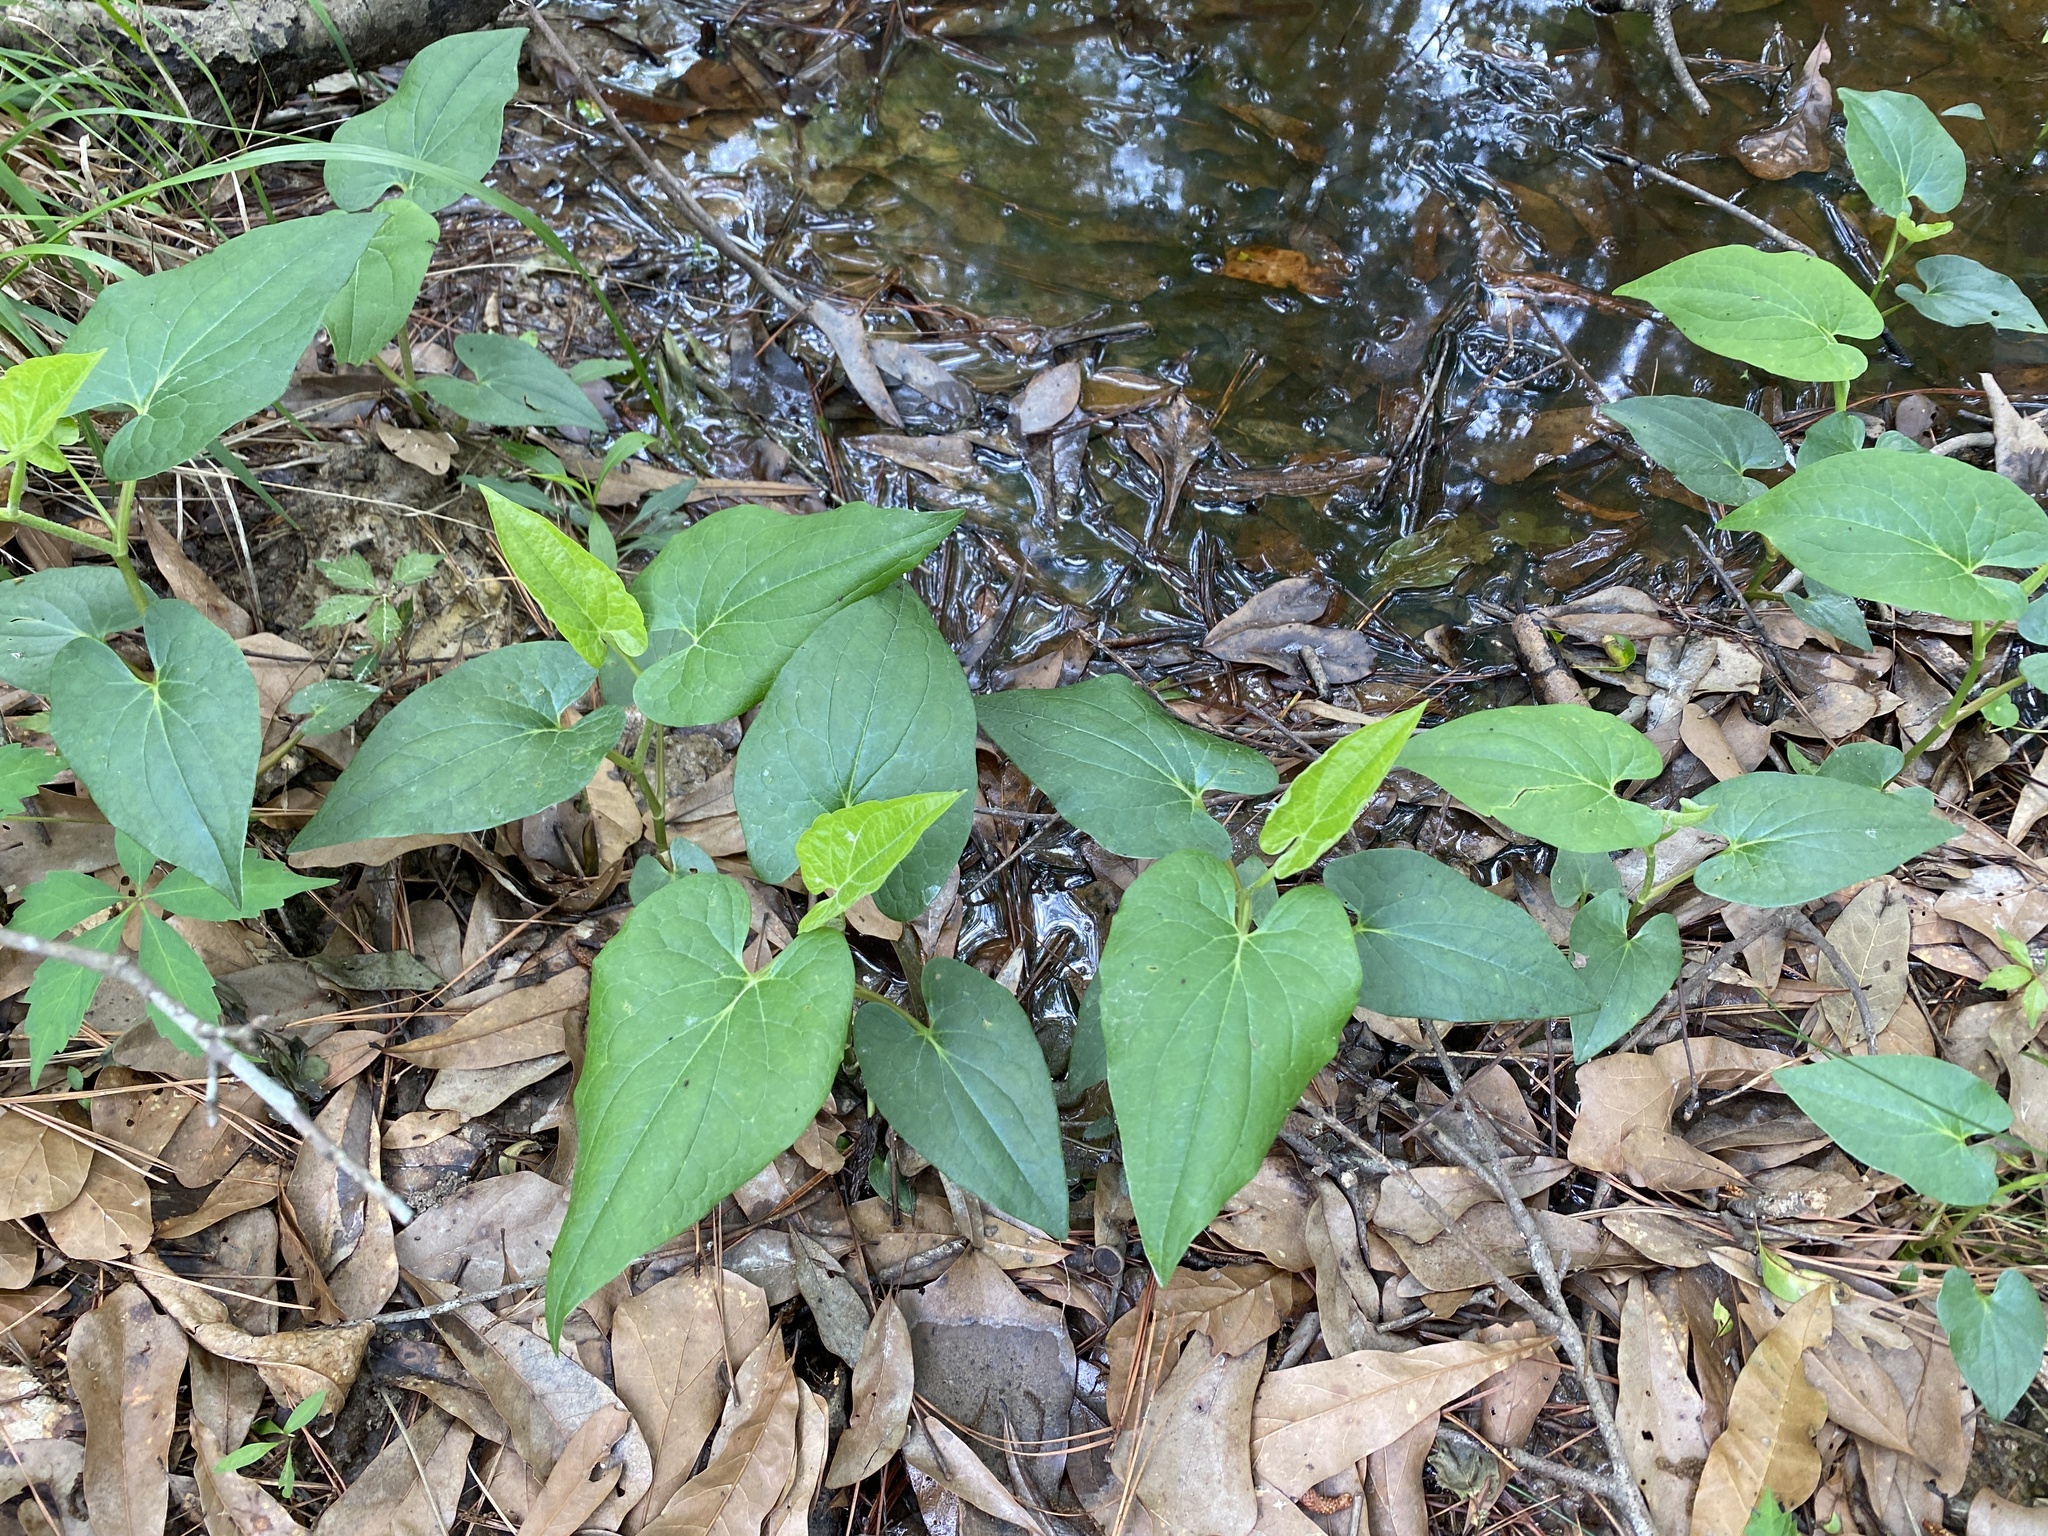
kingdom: Plantae
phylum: Tracheophyta
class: Magnoliopsida
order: Piperales
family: Saururaceae
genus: Saururus
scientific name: Saururus cernuus
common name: Lizard's-tail
